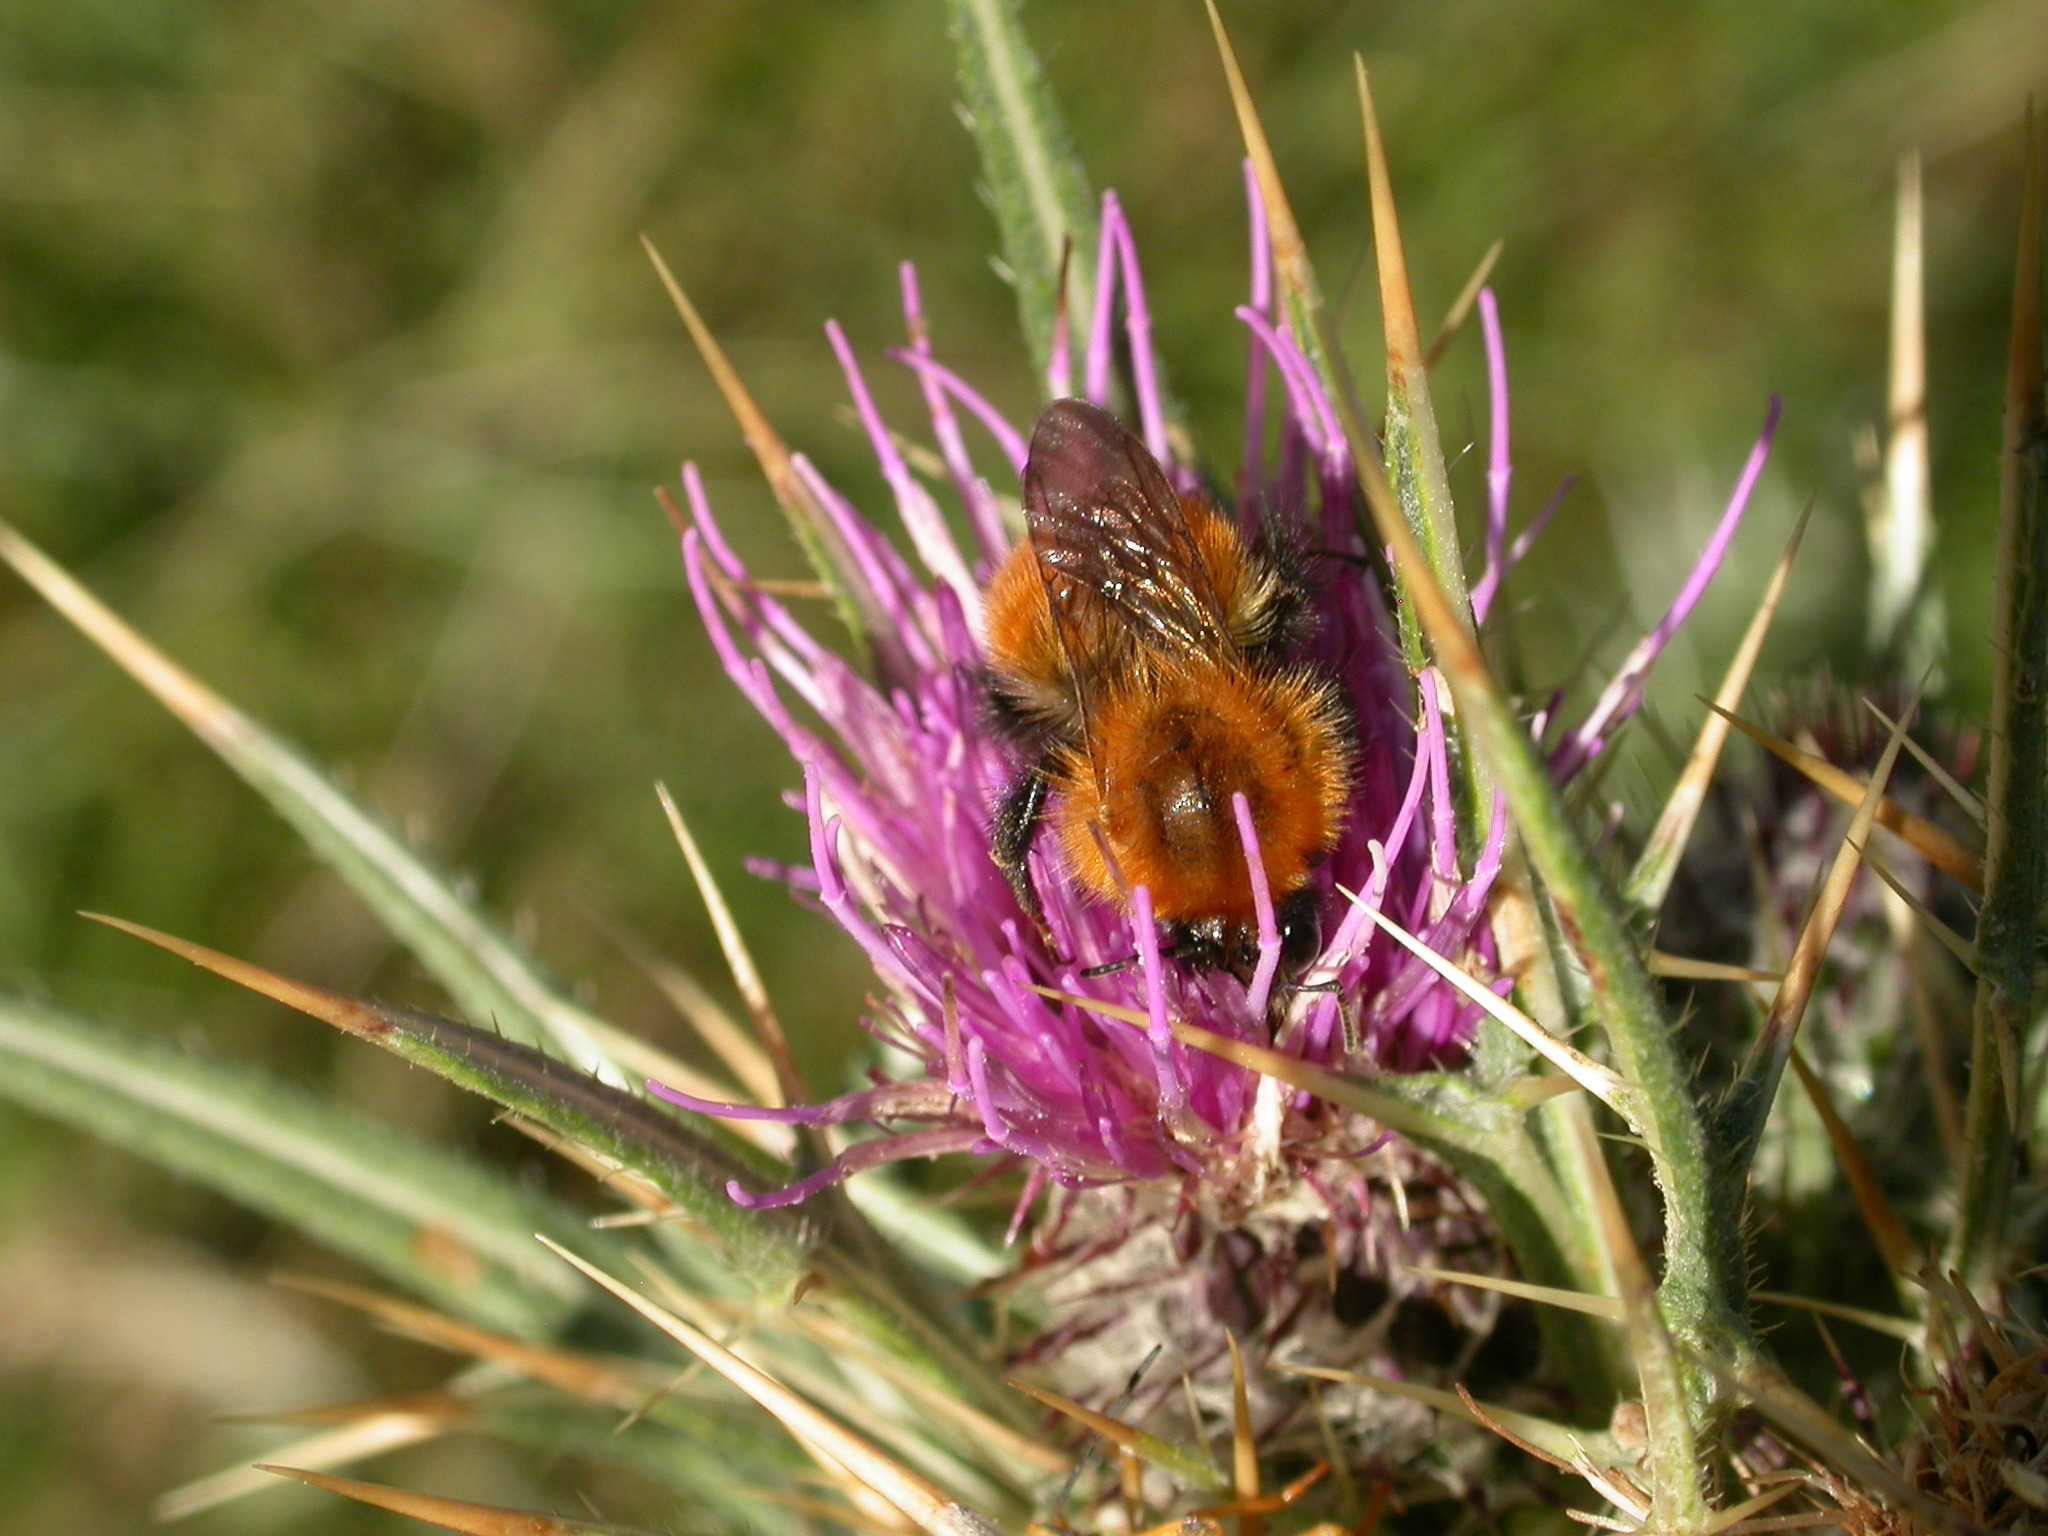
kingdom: Animalia
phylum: Arthropoda
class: Insecta
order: Hymenoptera
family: Apidae
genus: Bombus
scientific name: Bombus pascuorum
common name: Common carder bee
